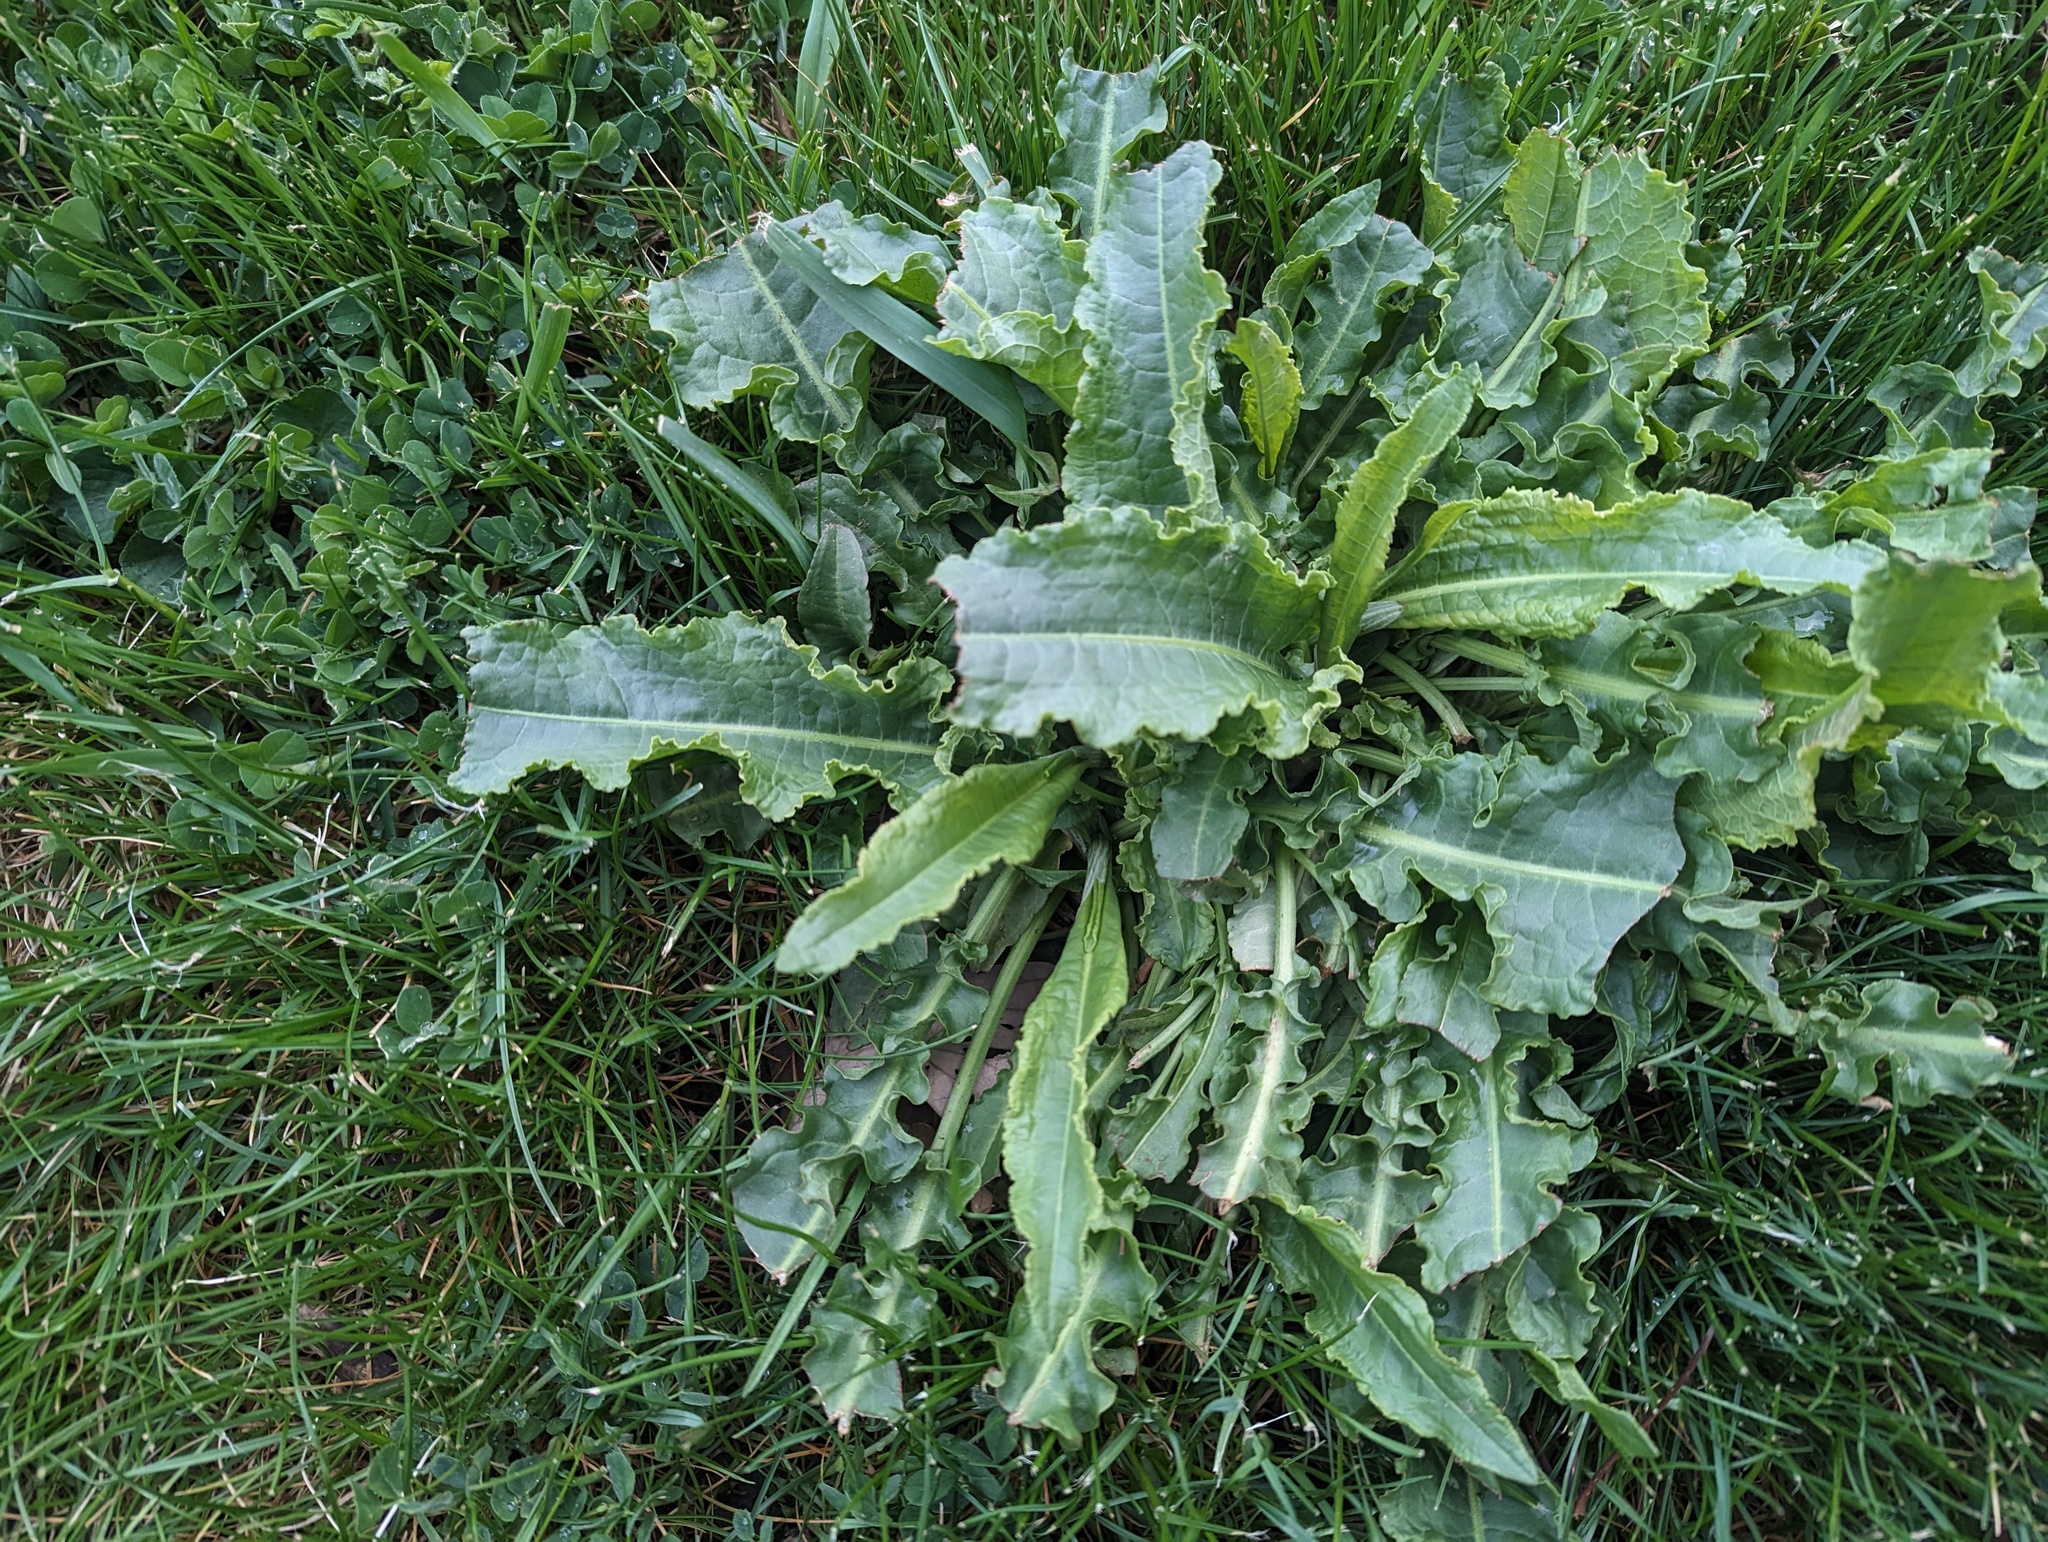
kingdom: Plantae
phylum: Tracheophyta
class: Magnoliopsida
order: Caryophyllales
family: Polygonaceae
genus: Rumex
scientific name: Rumex crispus
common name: Curled dock
